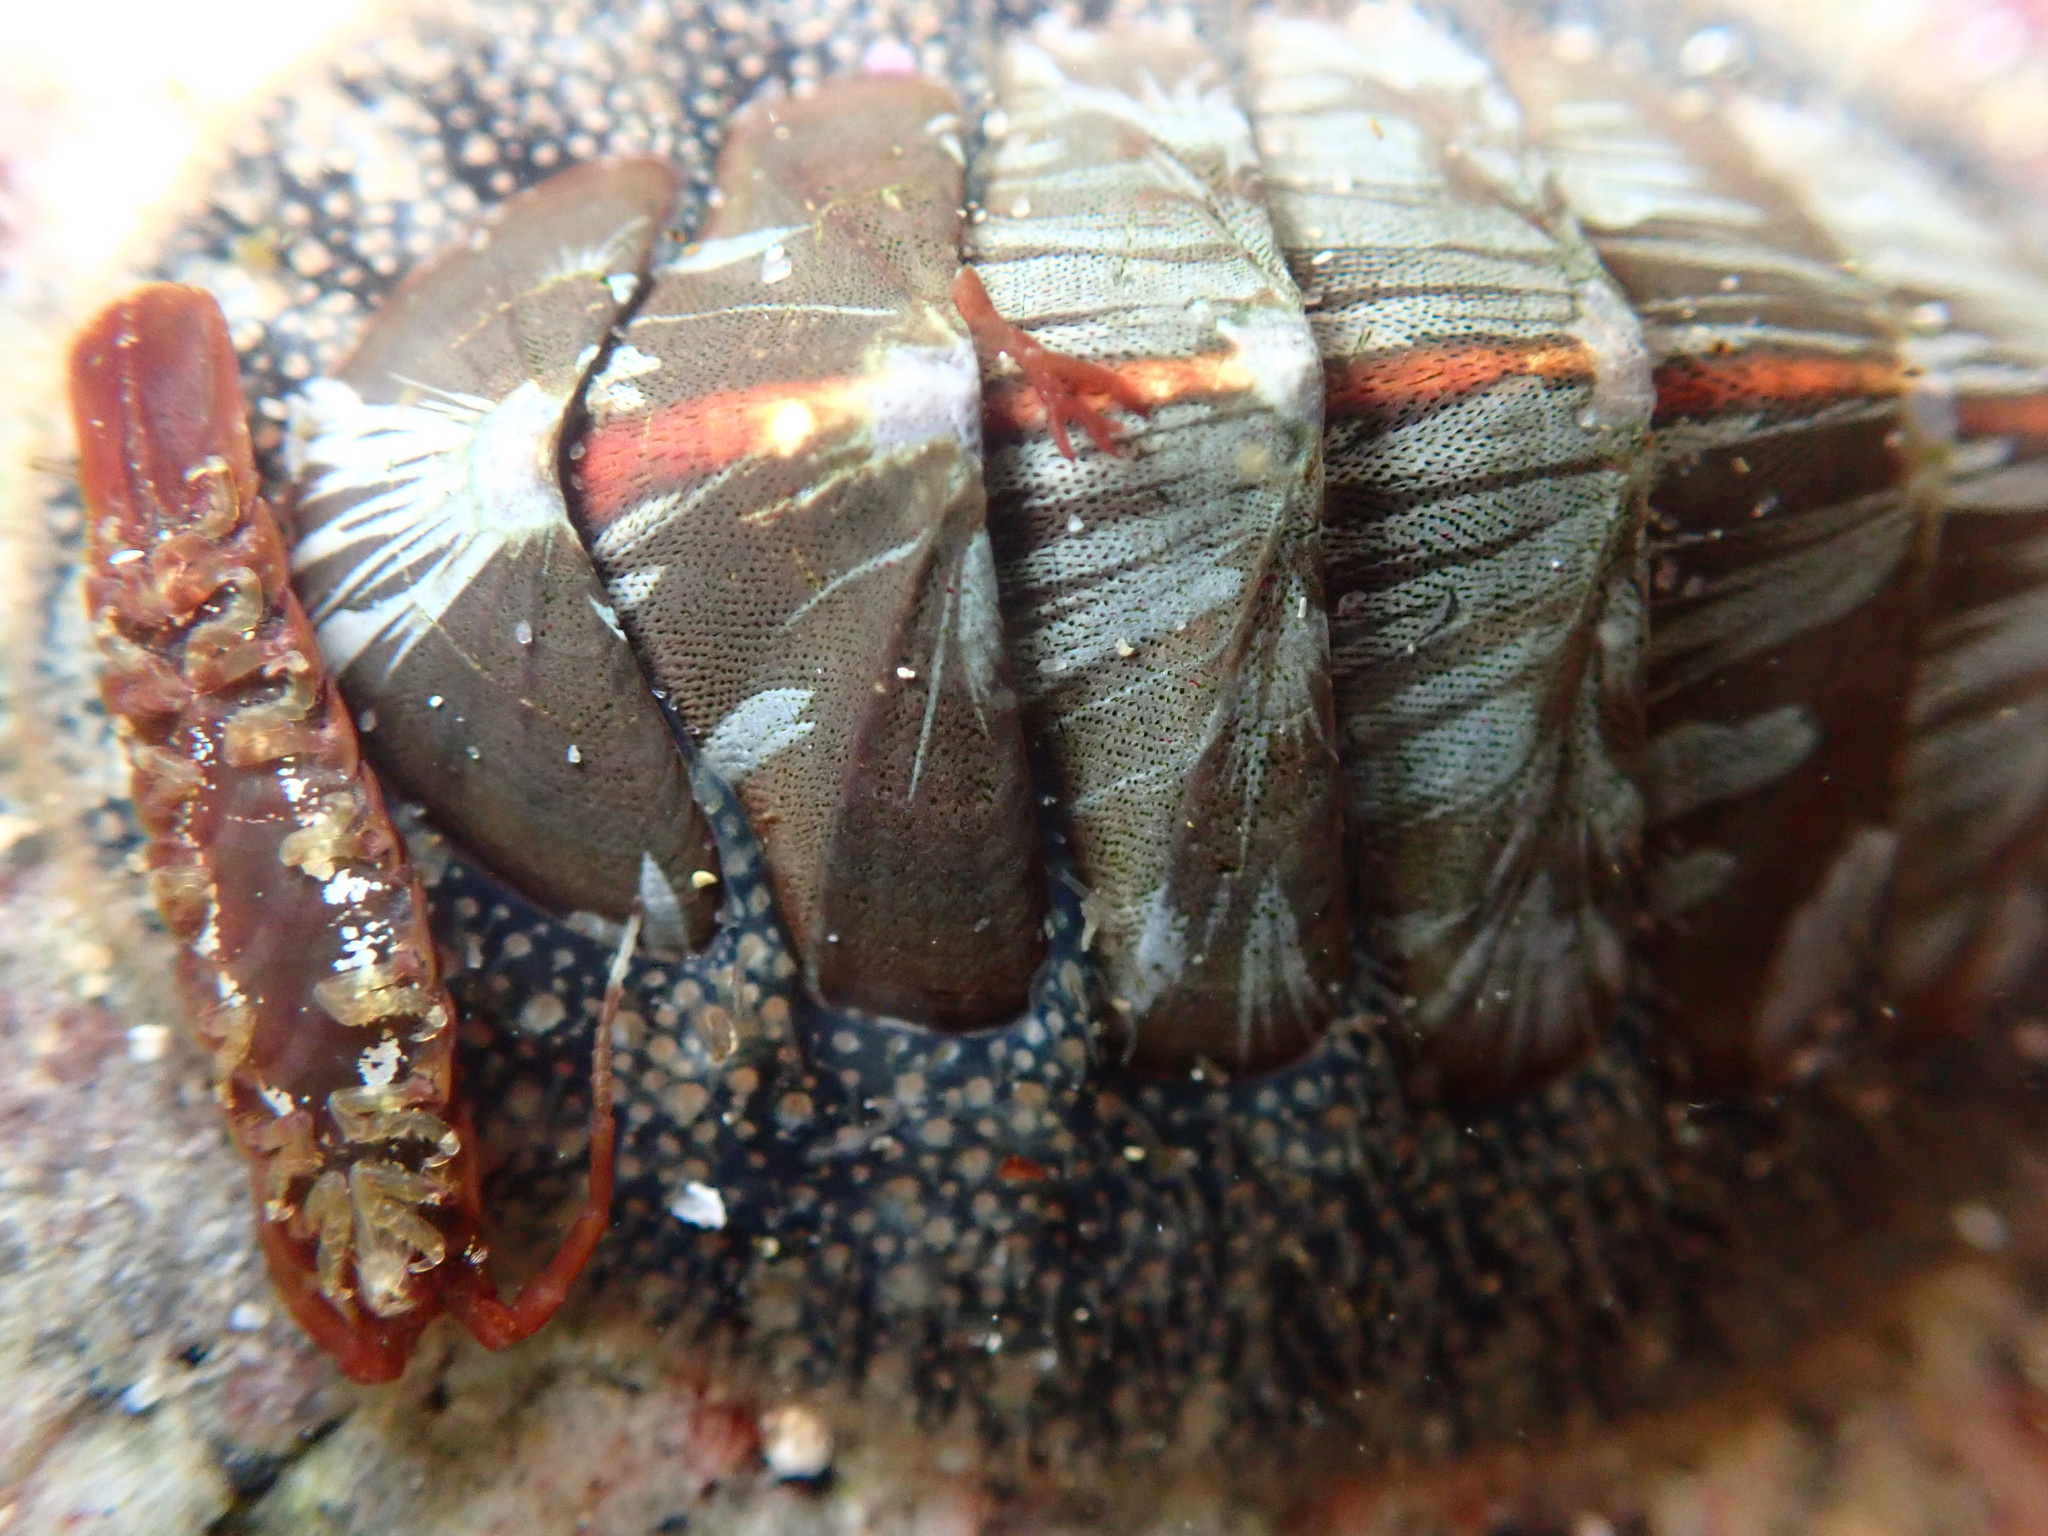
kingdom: Animalia
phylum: Mollusca
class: Polyplacophora
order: Chitonida
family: Mopaliidae
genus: Mopalia
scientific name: Mopalia lignosa
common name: Woody chiton
